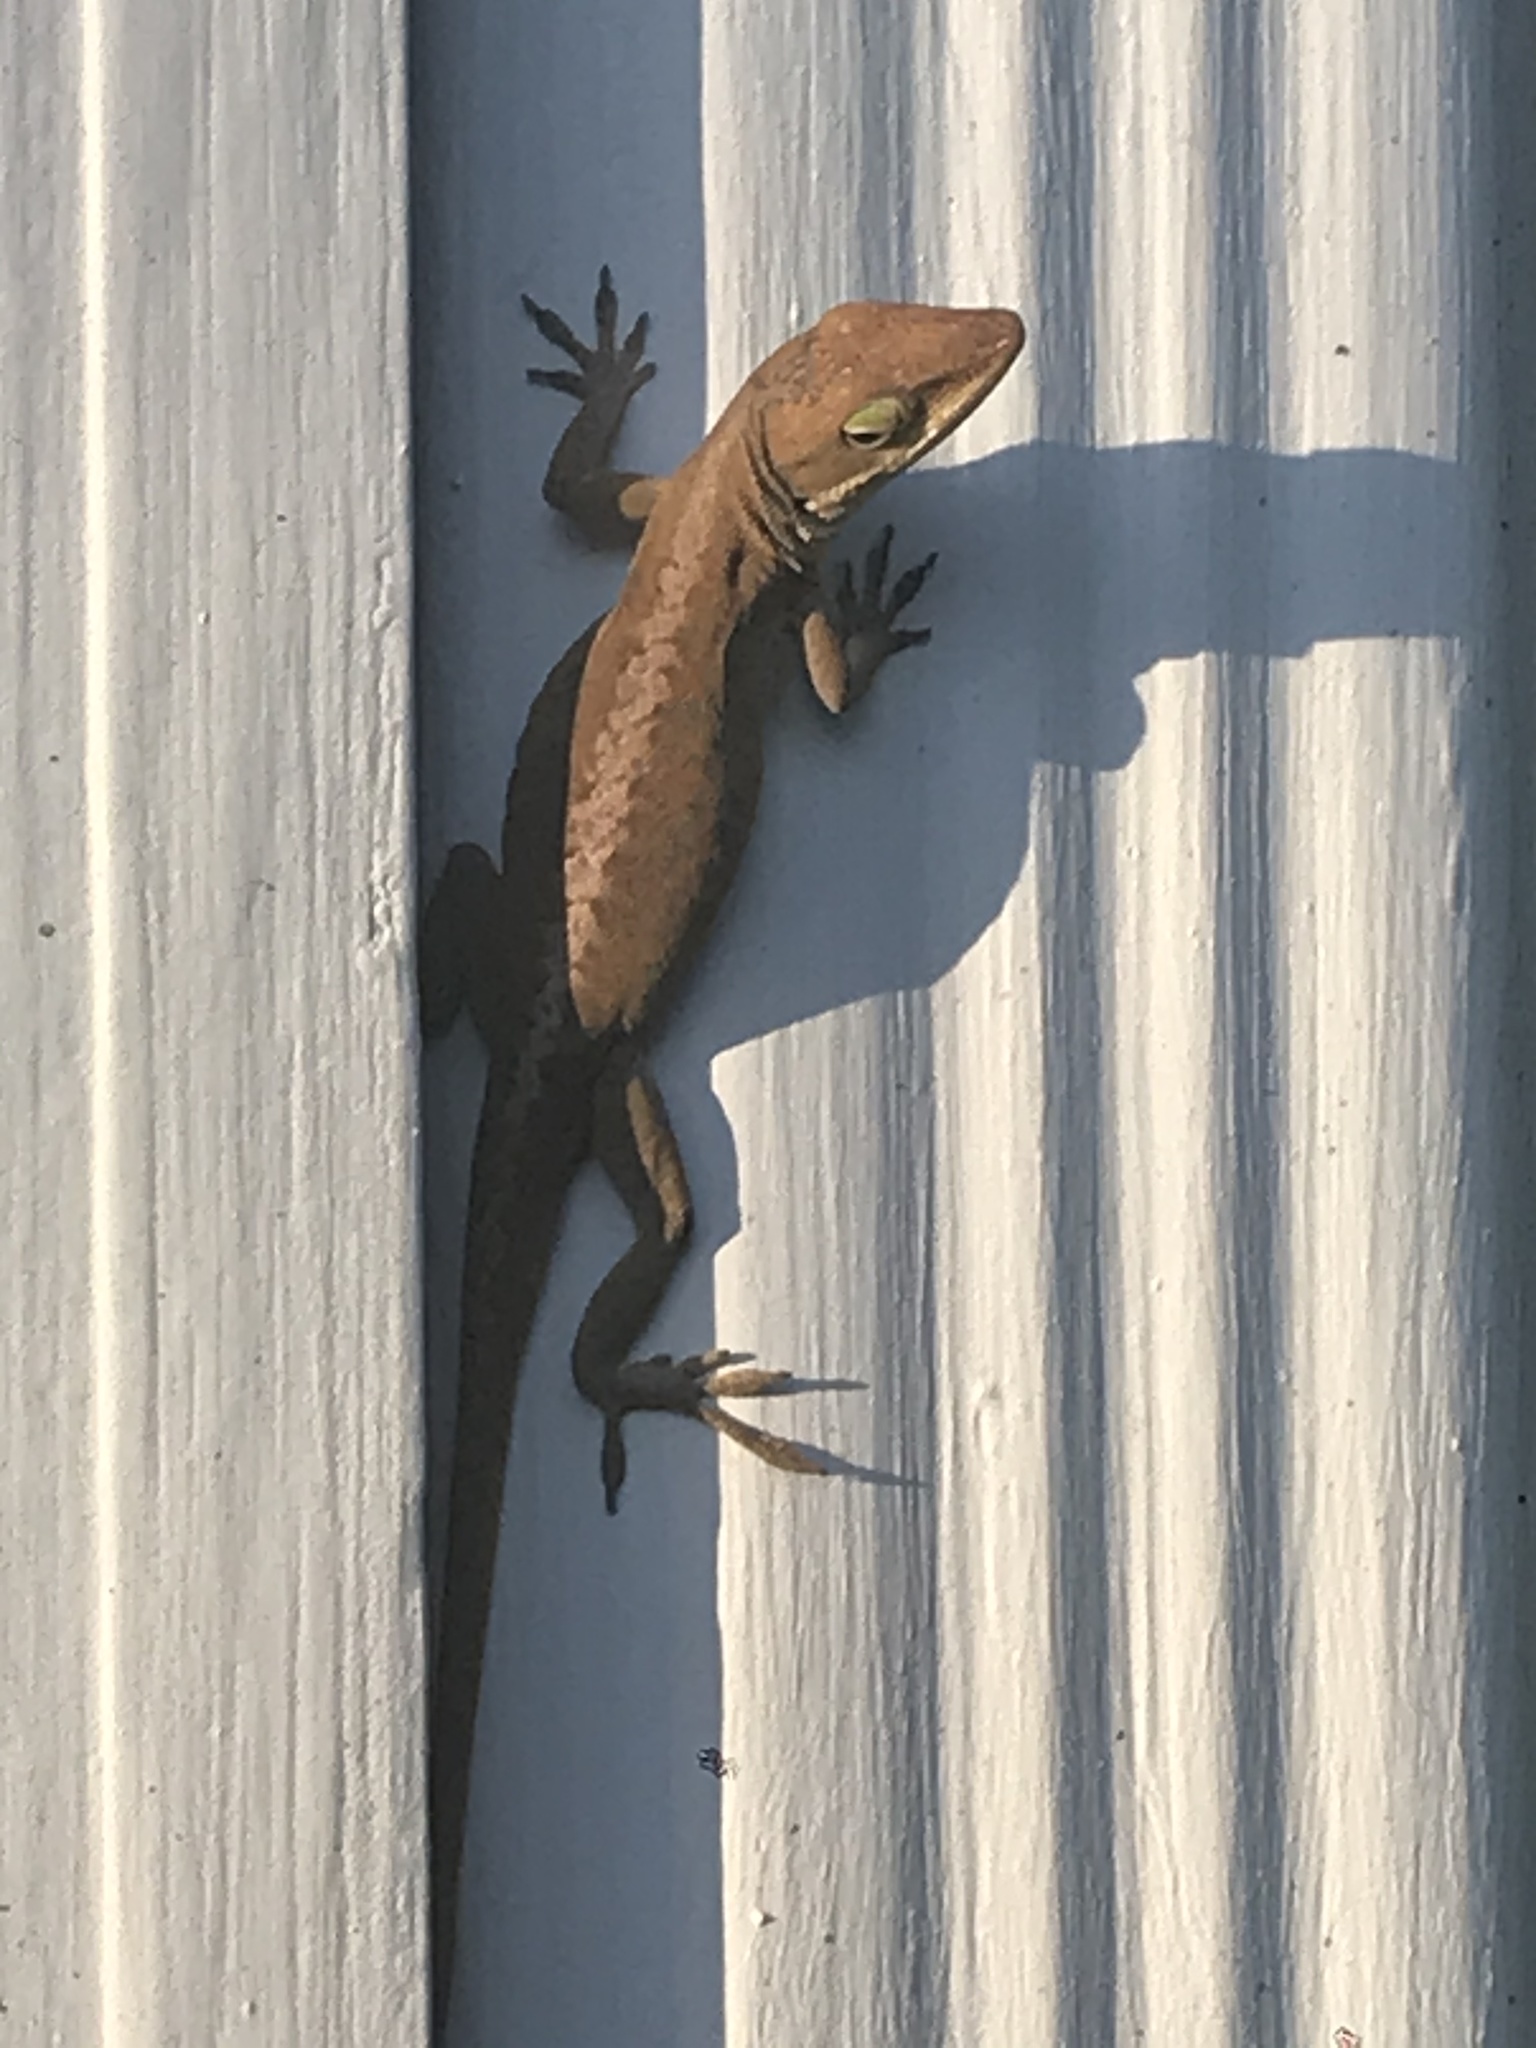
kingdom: Animalia
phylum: Chordata
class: Squamata
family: Dactyloidae
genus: Anolis
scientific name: Anolis carolinensis
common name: Green anole
